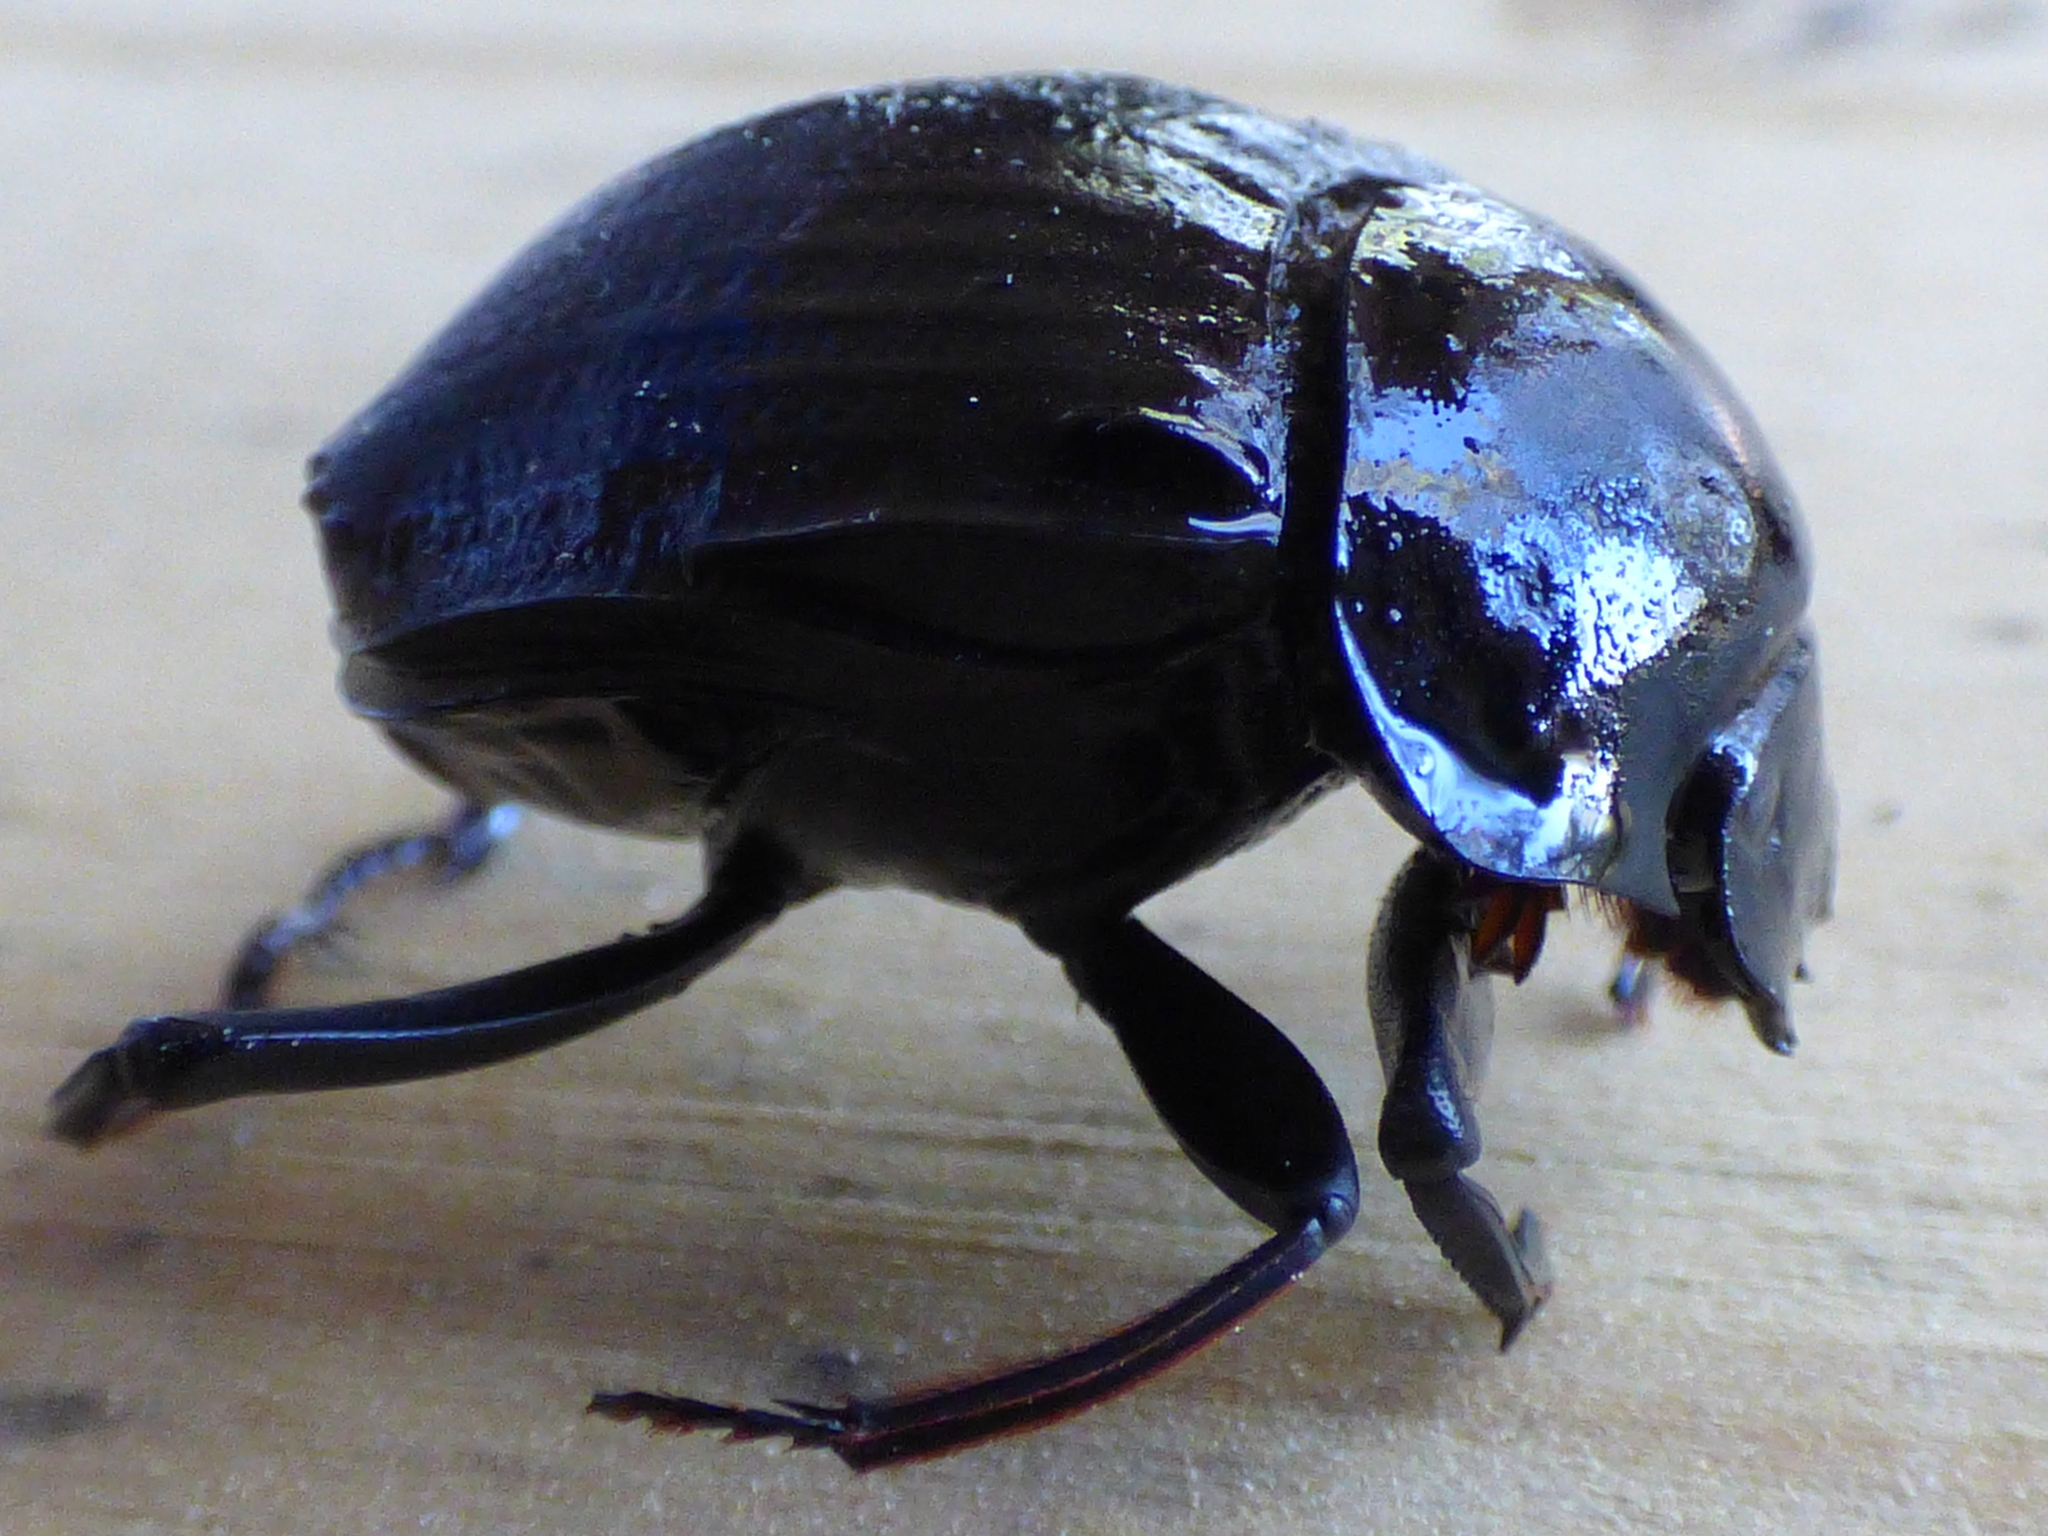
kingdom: Animalia
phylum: Arthropoda
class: Insecta
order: Coleoptera
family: Scarabaeidae
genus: Deltochilum
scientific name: Deltochilum gibbosum
